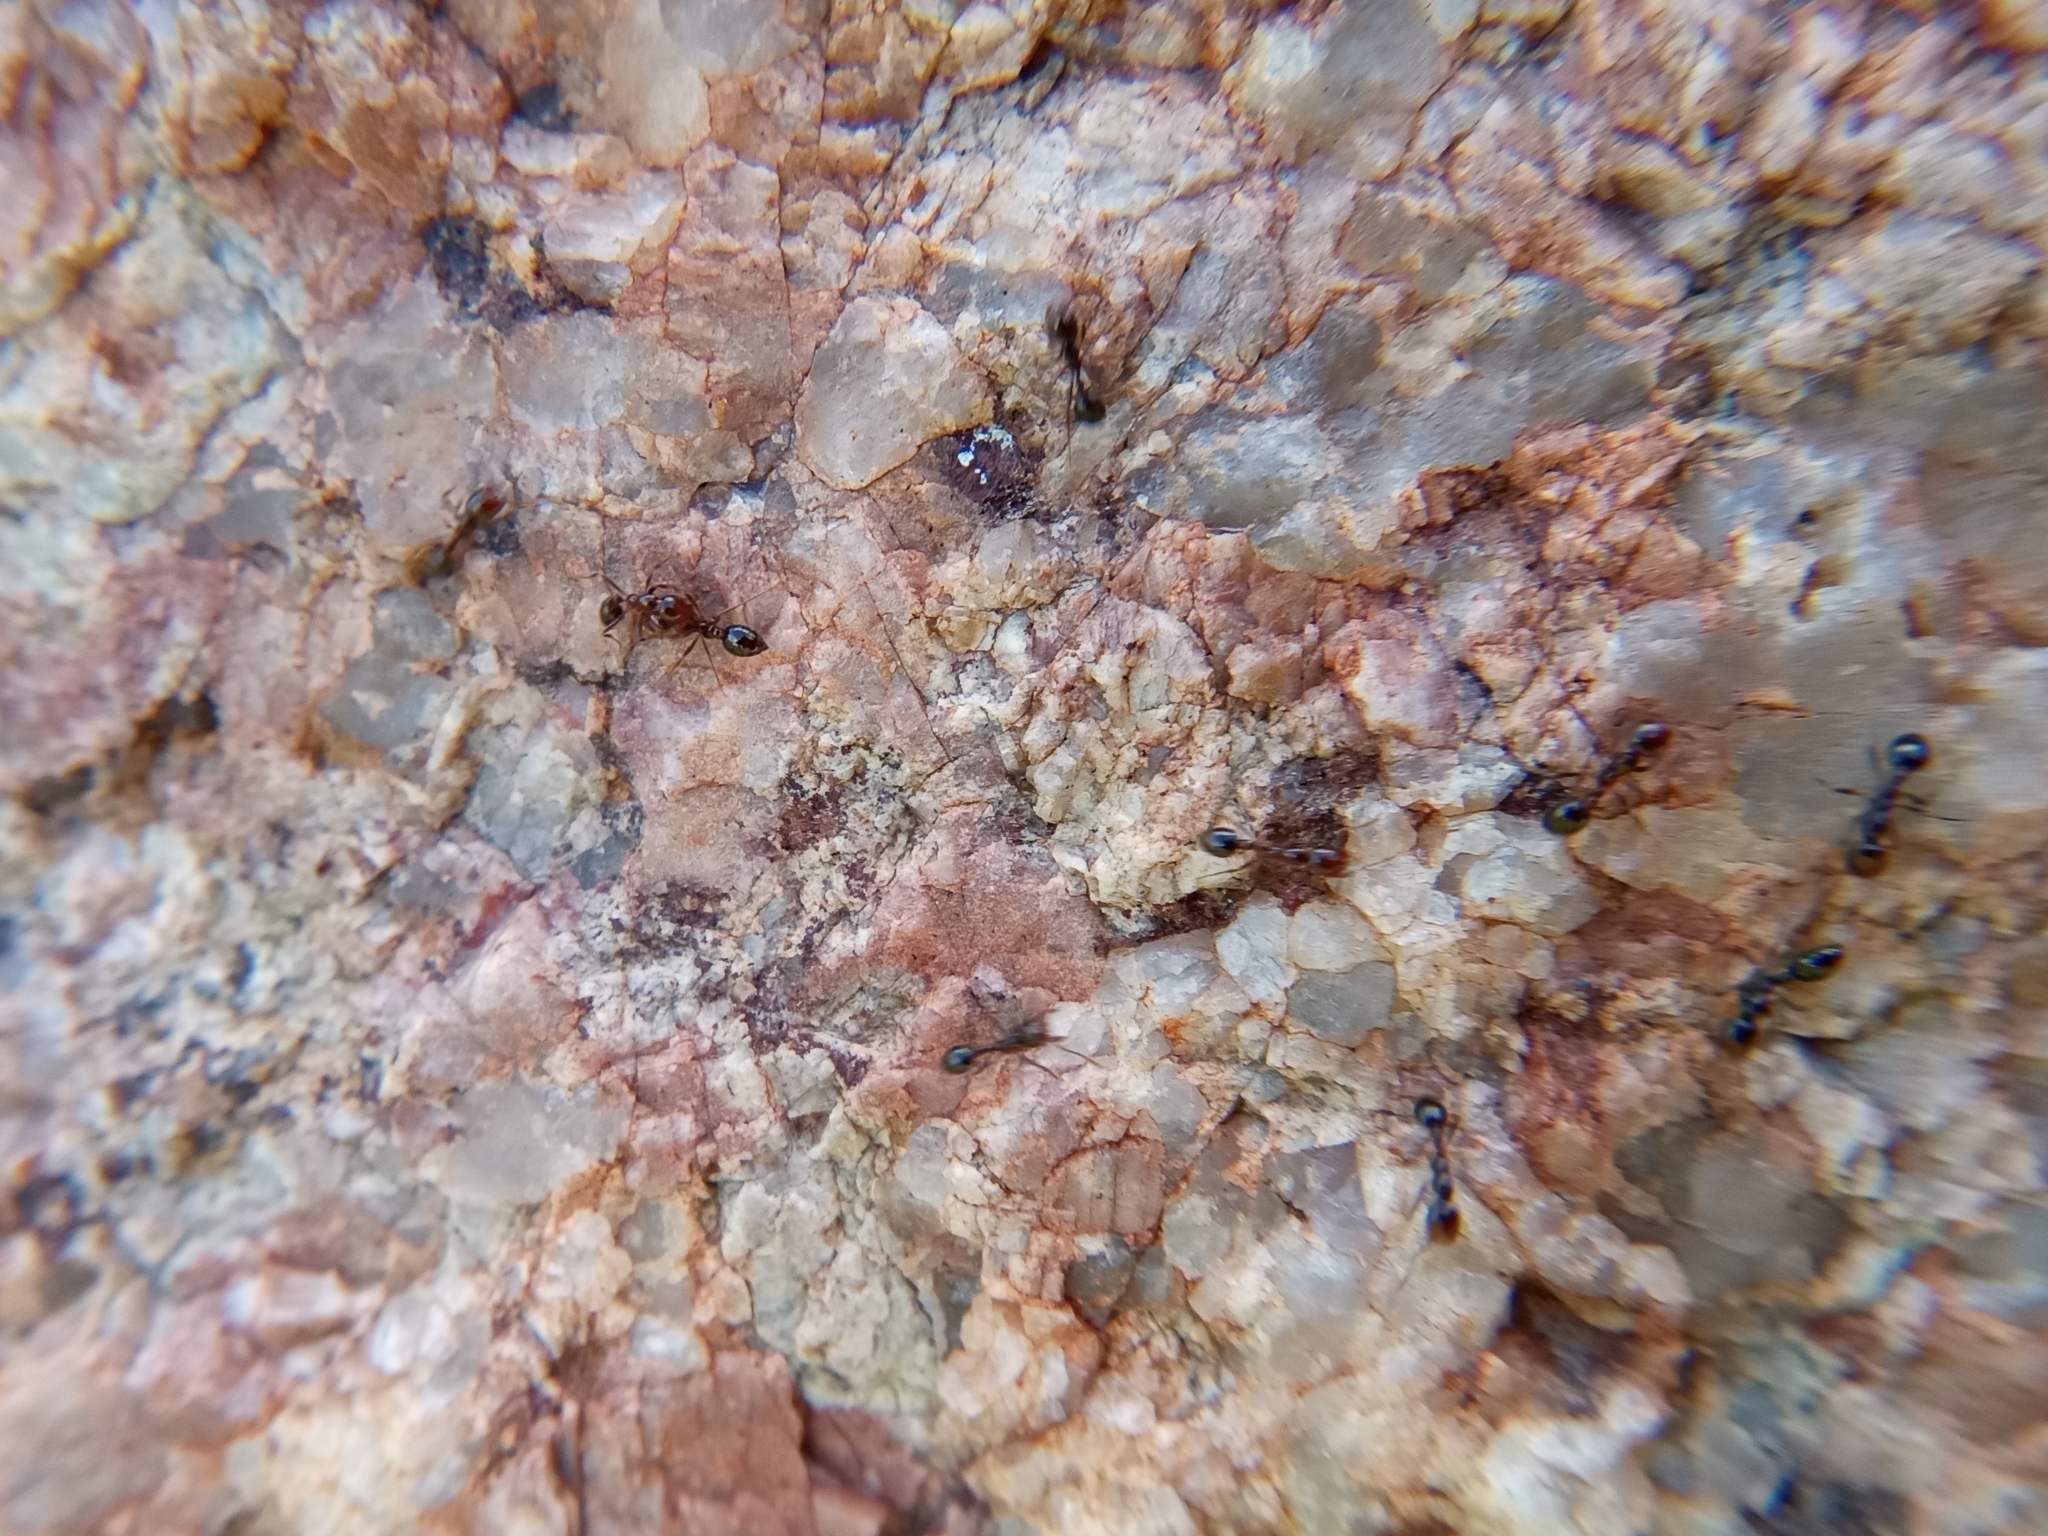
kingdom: Animalia
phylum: Arthropoda
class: Insecta
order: Hymenoptera
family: Formicidae
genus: Solenopsis
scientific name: Solenopsis xyloni
